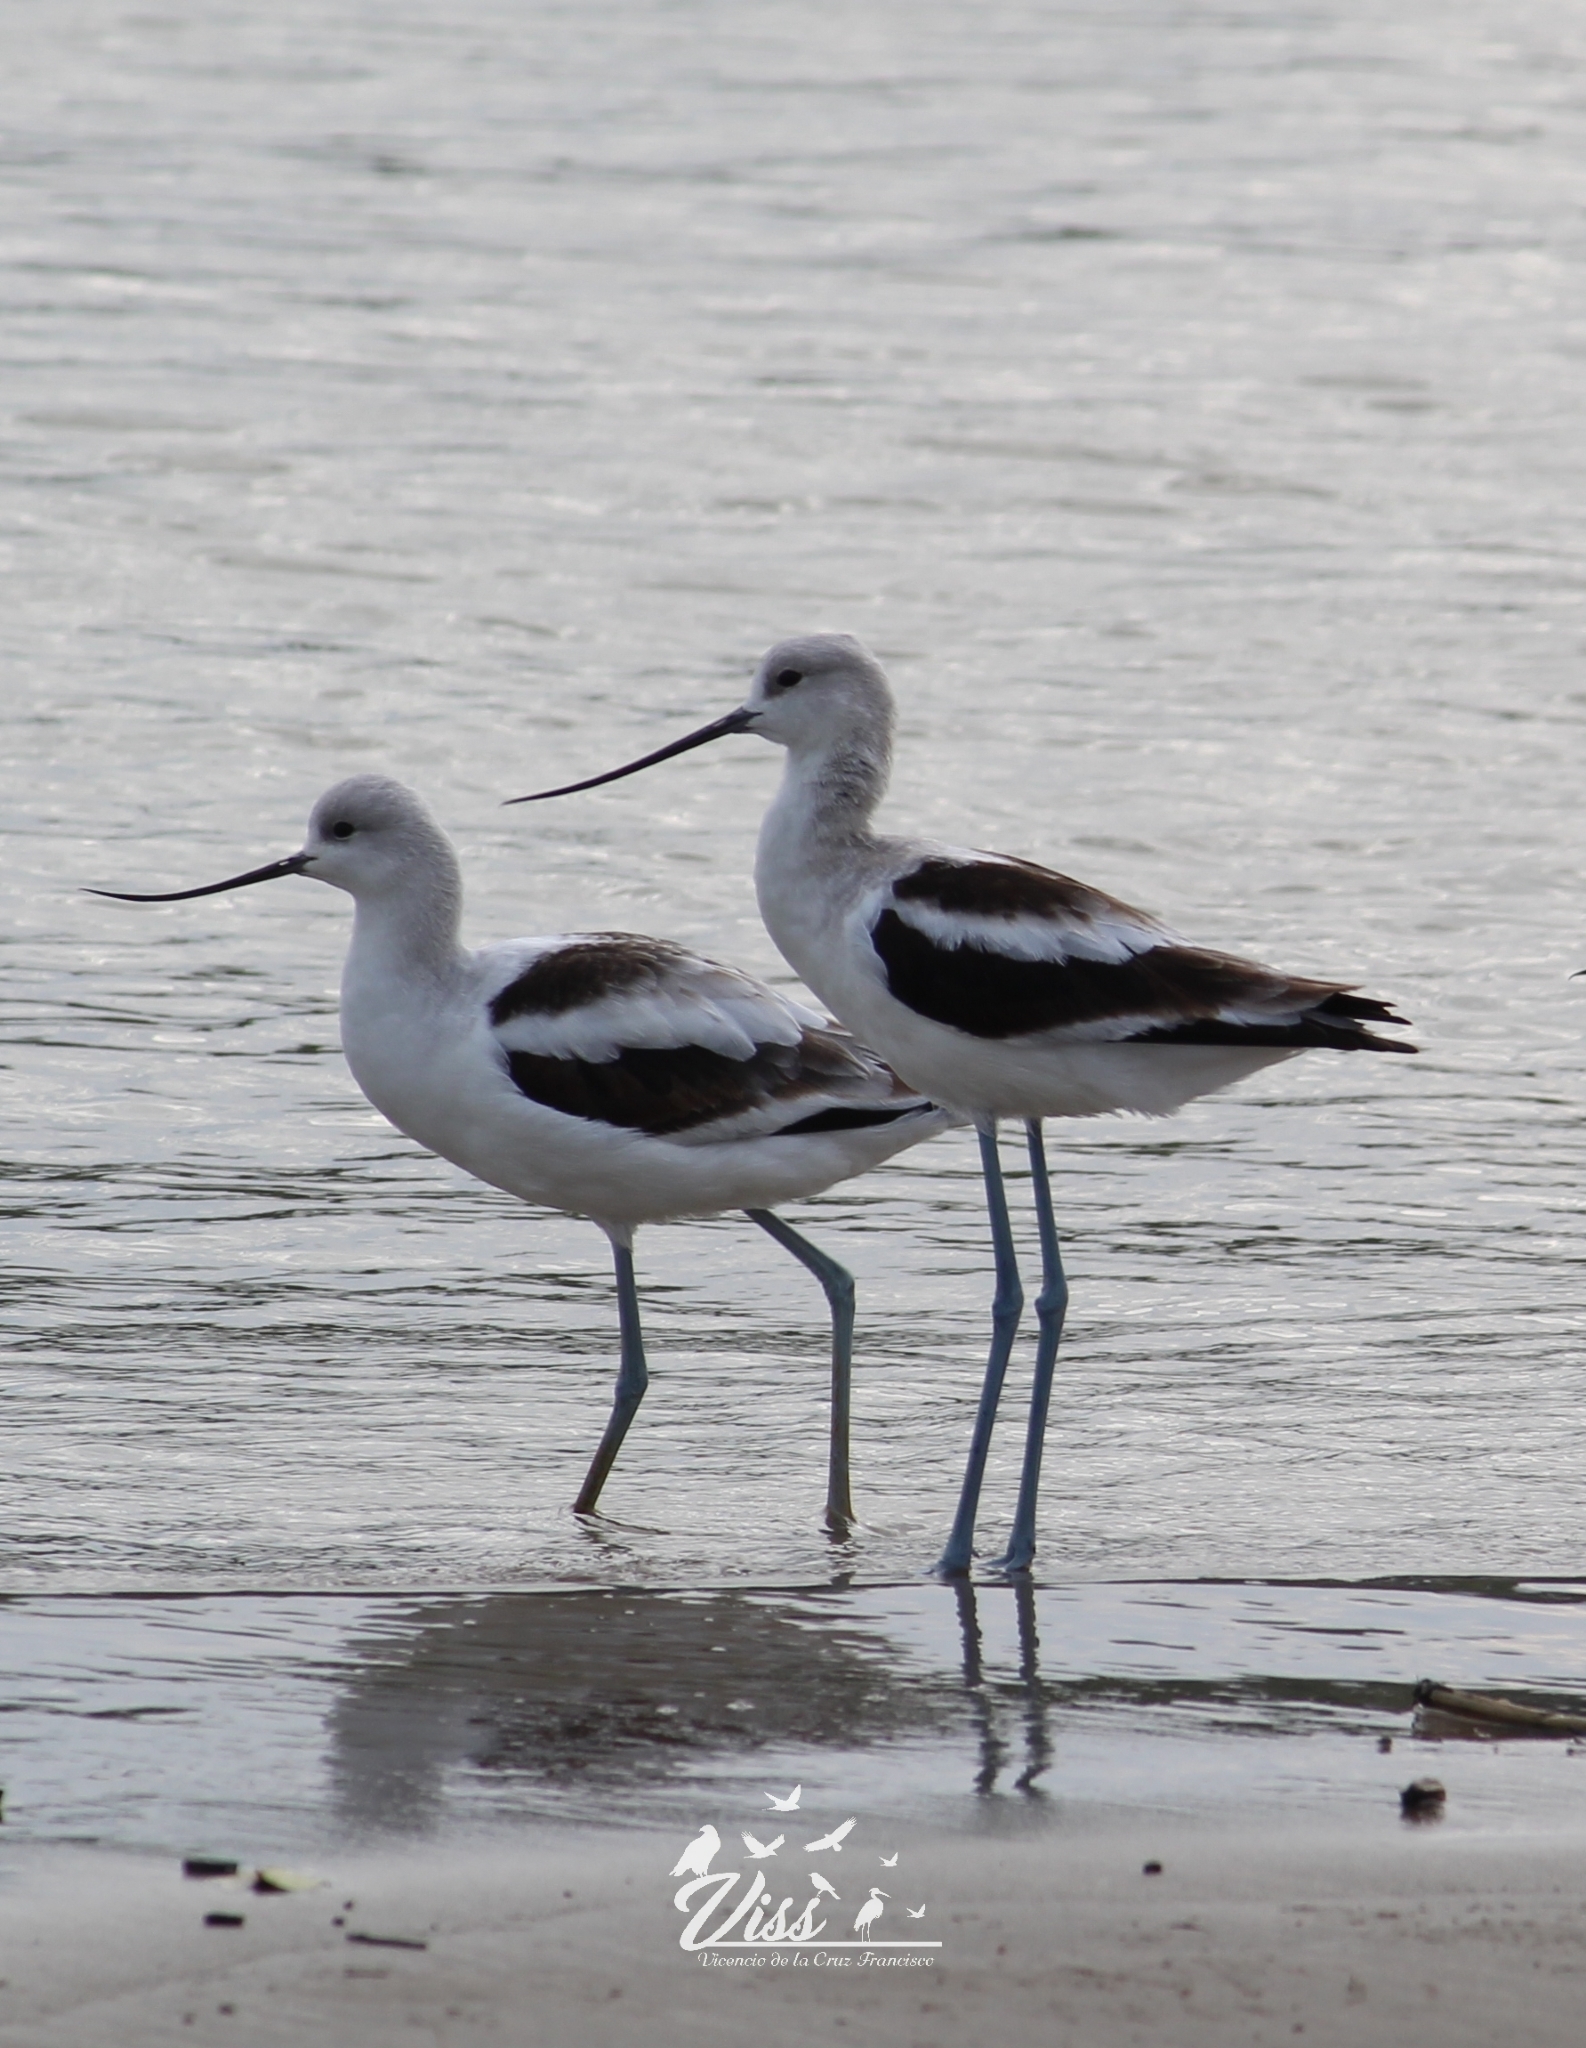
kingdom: Animalia
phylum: Chordata
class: Aves
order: Charadriiformes
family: Recurvirostridae
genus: Recurvirostra
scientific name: Recurvirostra americana
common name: American avocet
